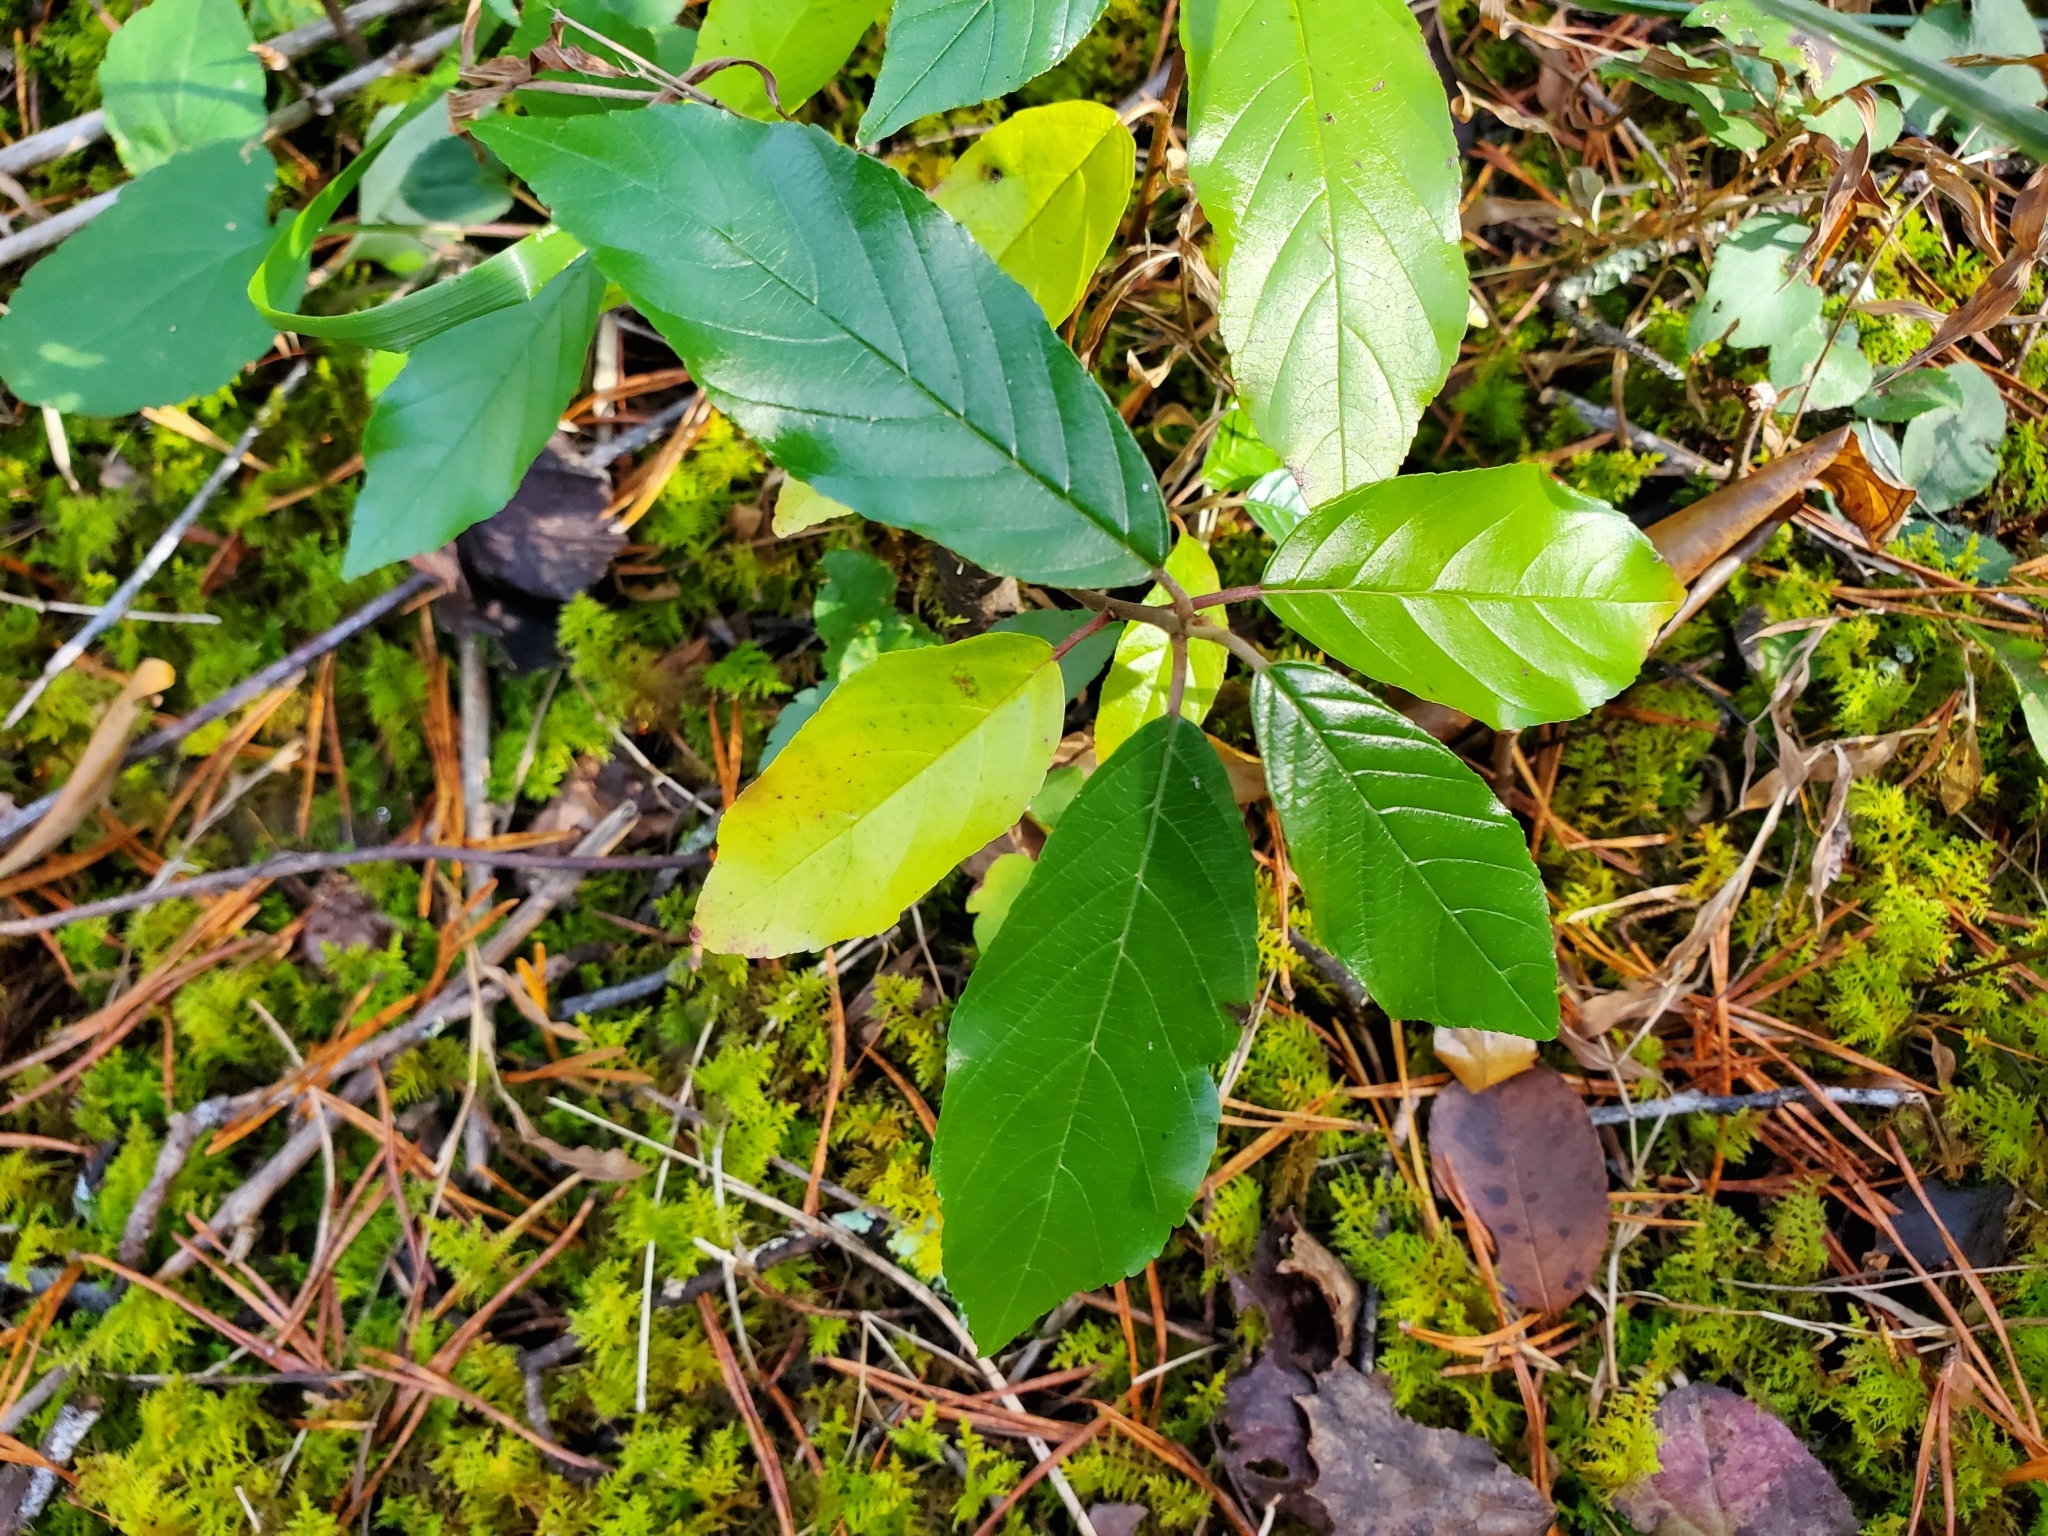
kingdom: Plantae
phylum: Tracheophyta
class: Magnoliopsida
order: Rosales
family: Rhamnaceae
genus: Frangula
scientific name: Frangula caroliniana
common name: Carolina buckthorn
